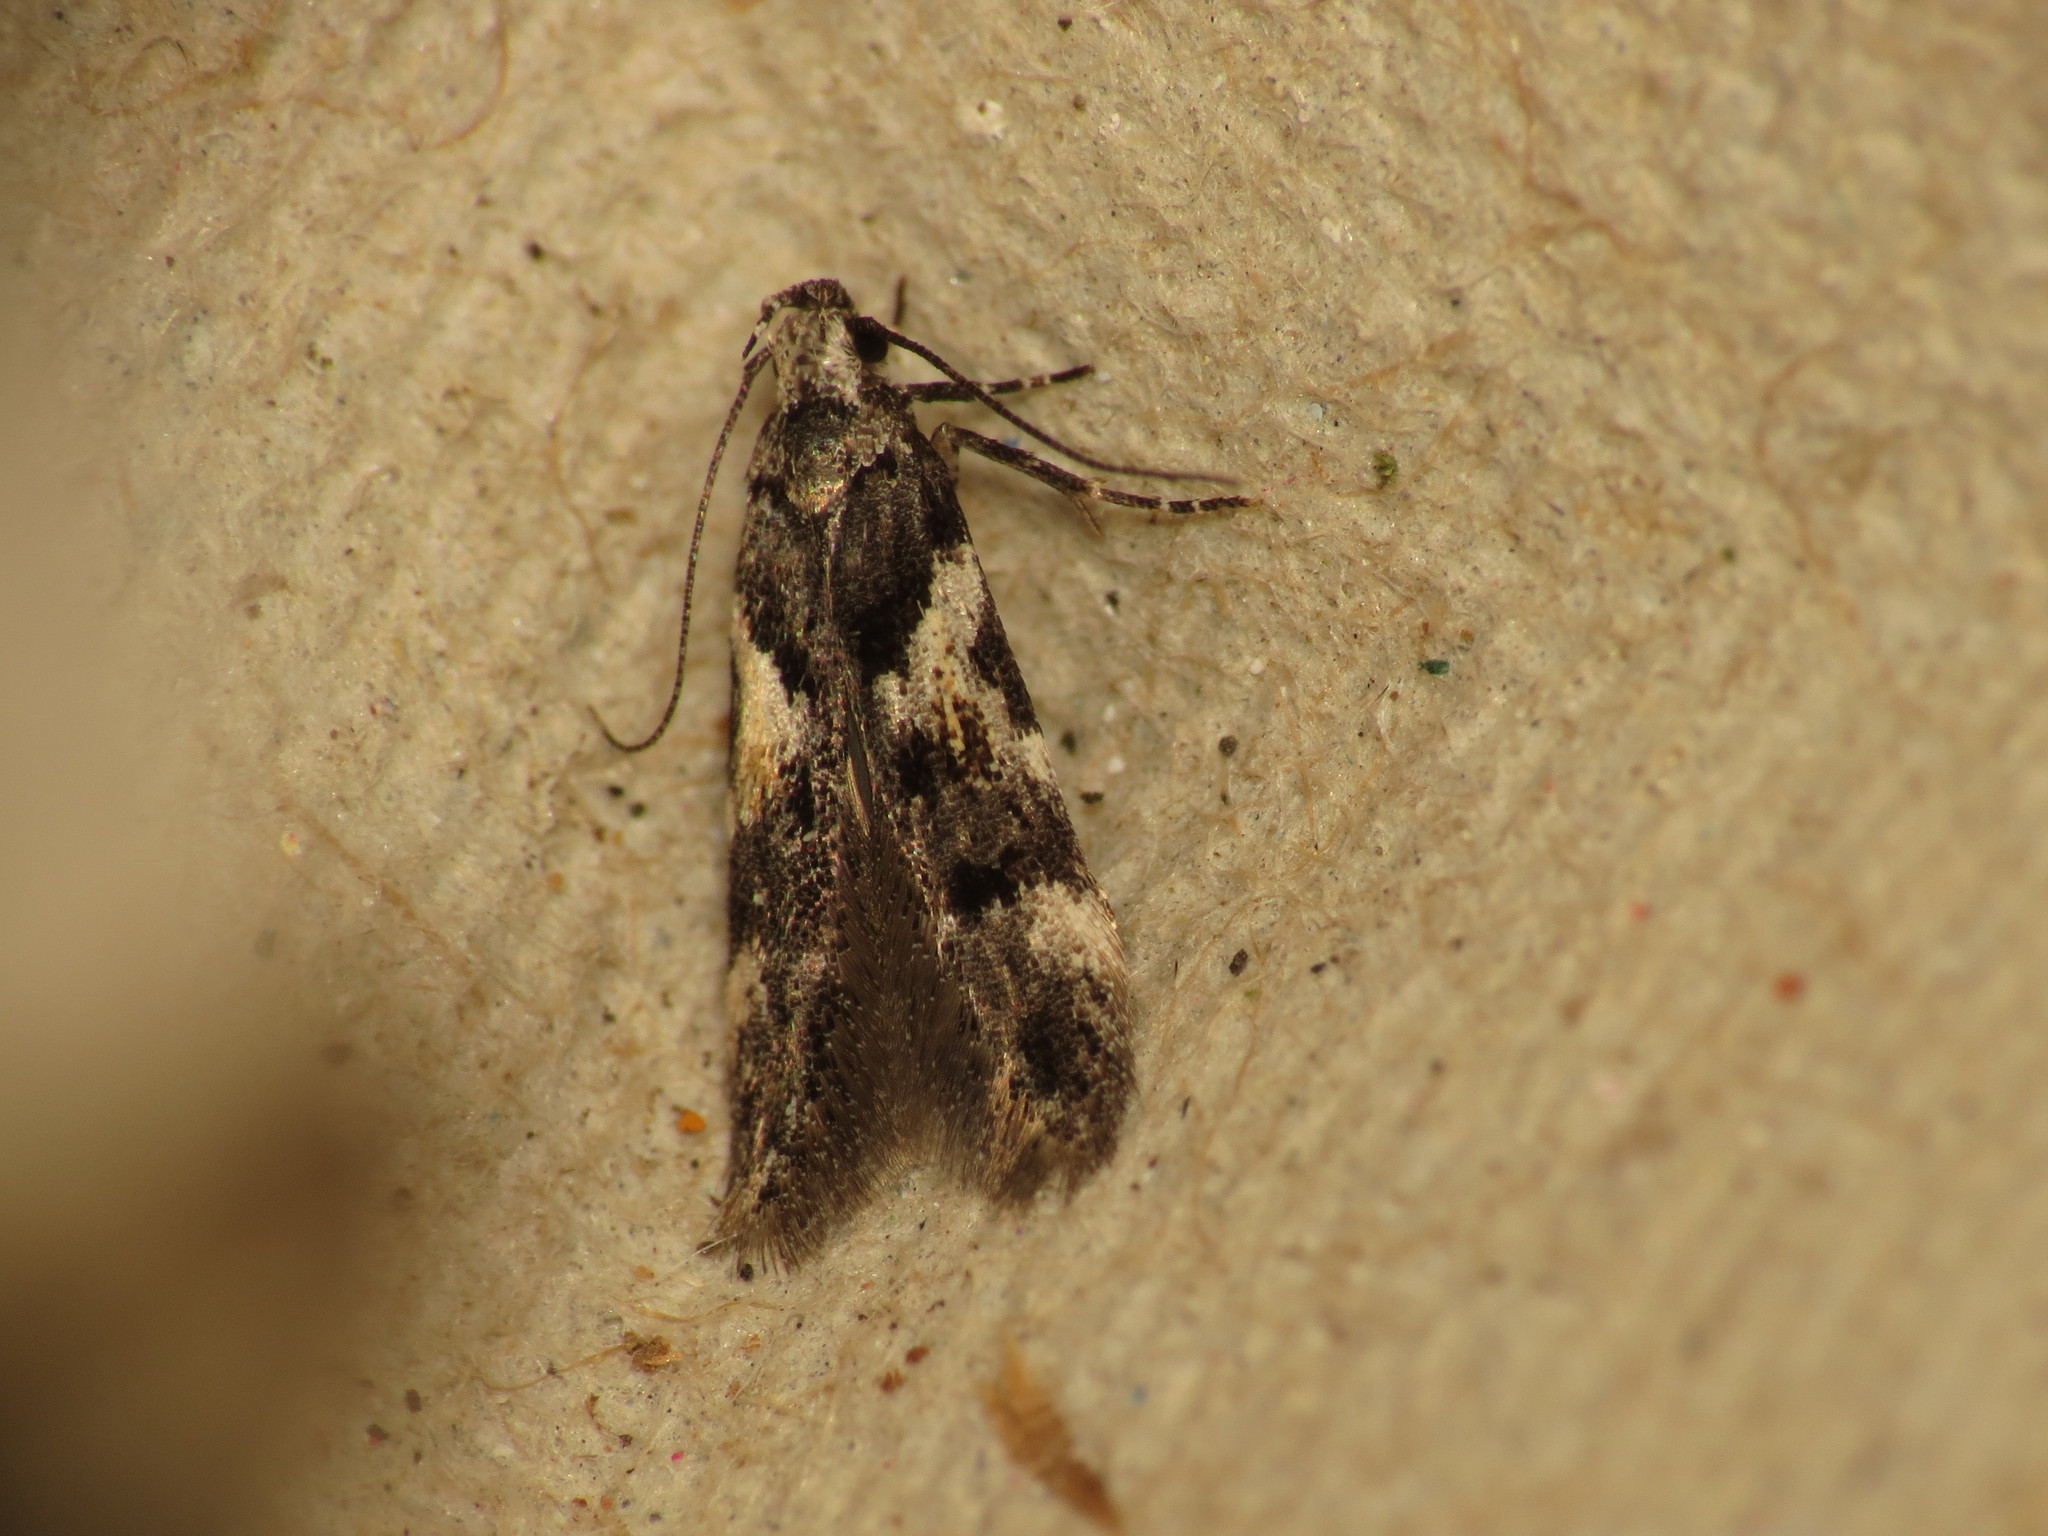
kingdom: Animalia
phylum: Arthropoda
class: Insecta
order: Lepidoptera
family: Gelechiidae
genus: Teleiodes
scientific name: Teleiodes luculella
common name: Crescent groundling
